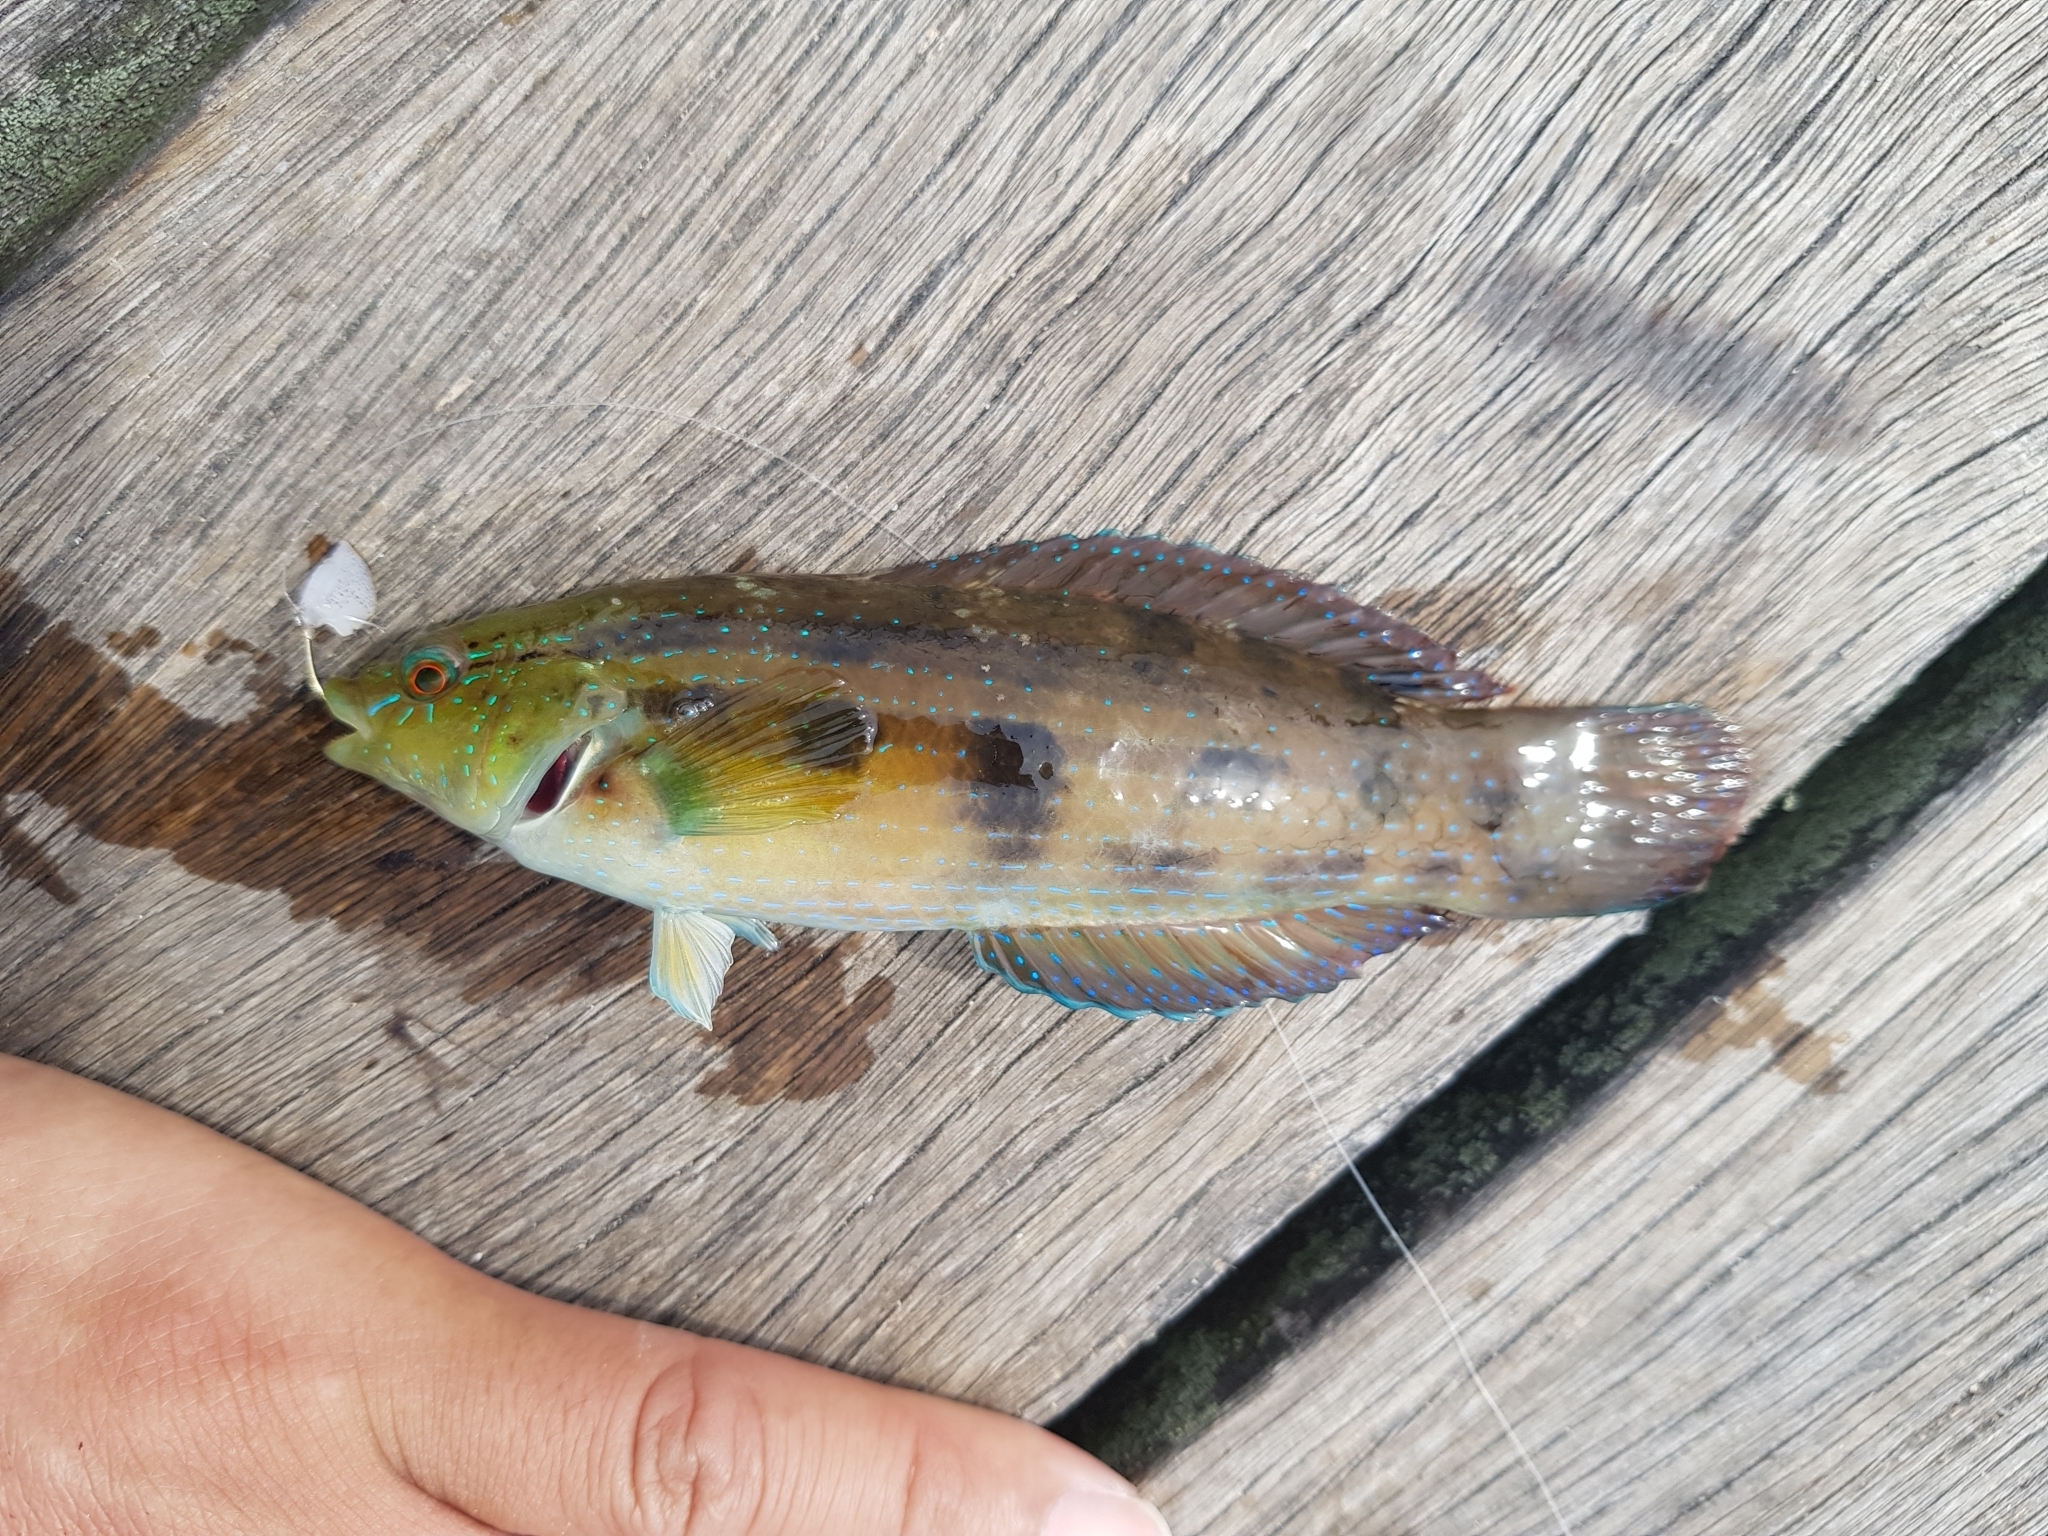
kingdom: Animalia
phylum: Chordata
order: Perciformes
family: Labridae
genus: Pictilabrus
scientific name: Pictilabrus laticlavius
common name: Patrician wrasse
